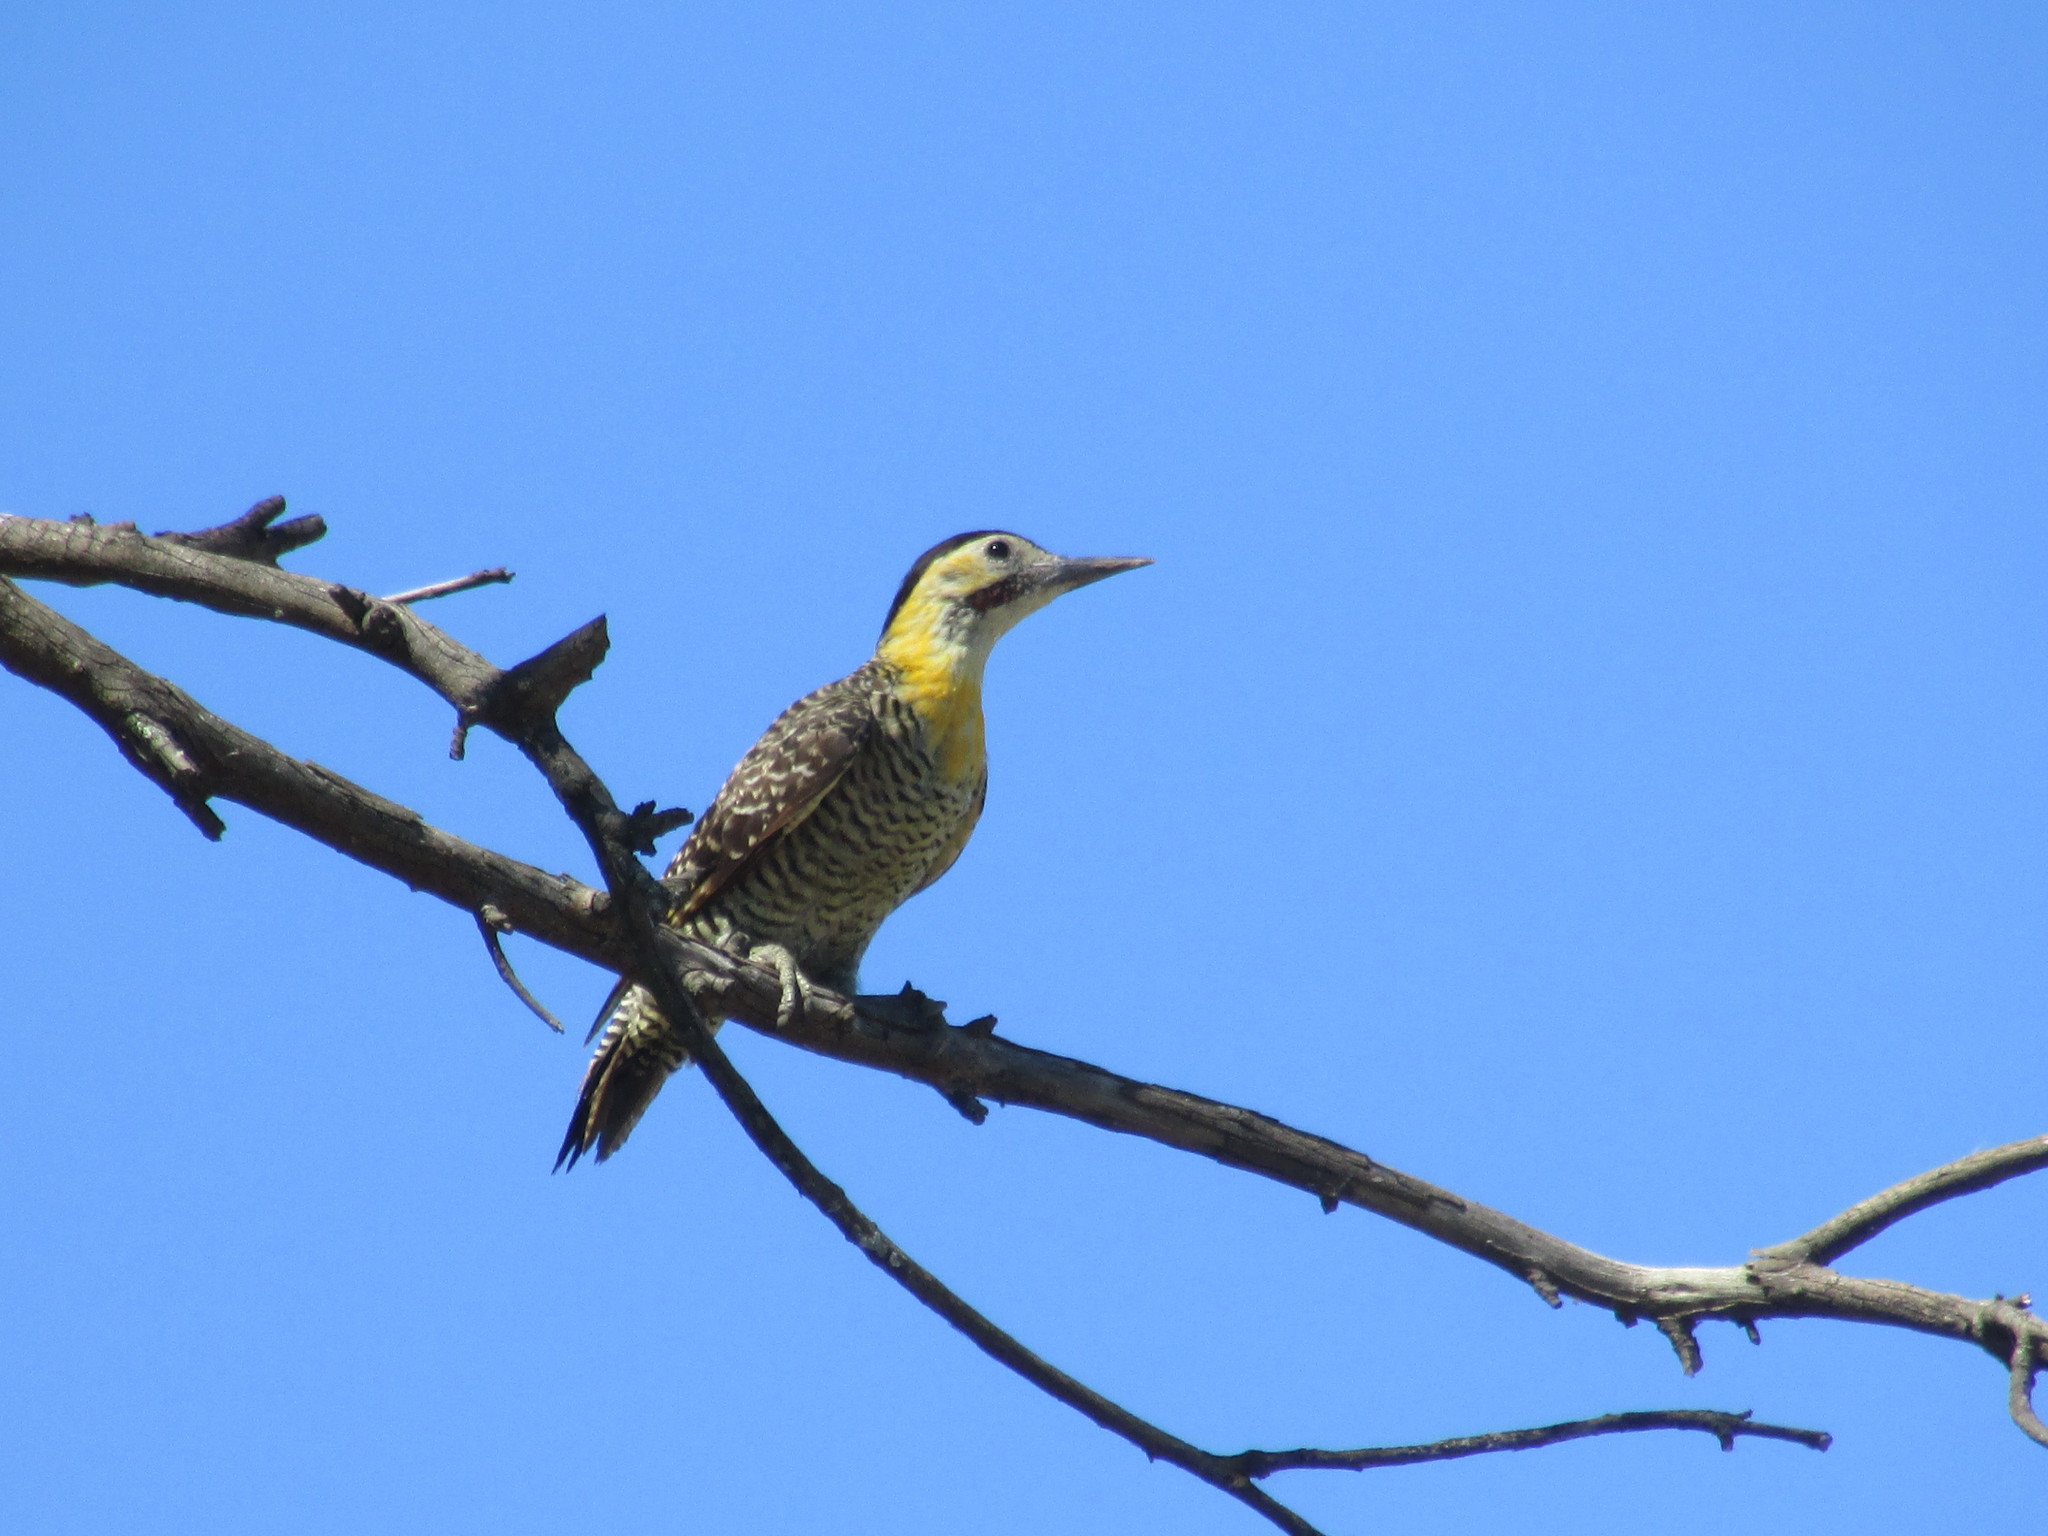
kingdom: Animalia
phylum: Chordata
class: Aves
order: Piciformes
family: Picidae
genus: Colaptes
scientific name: Colaptes campestris
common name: Campo flicker
